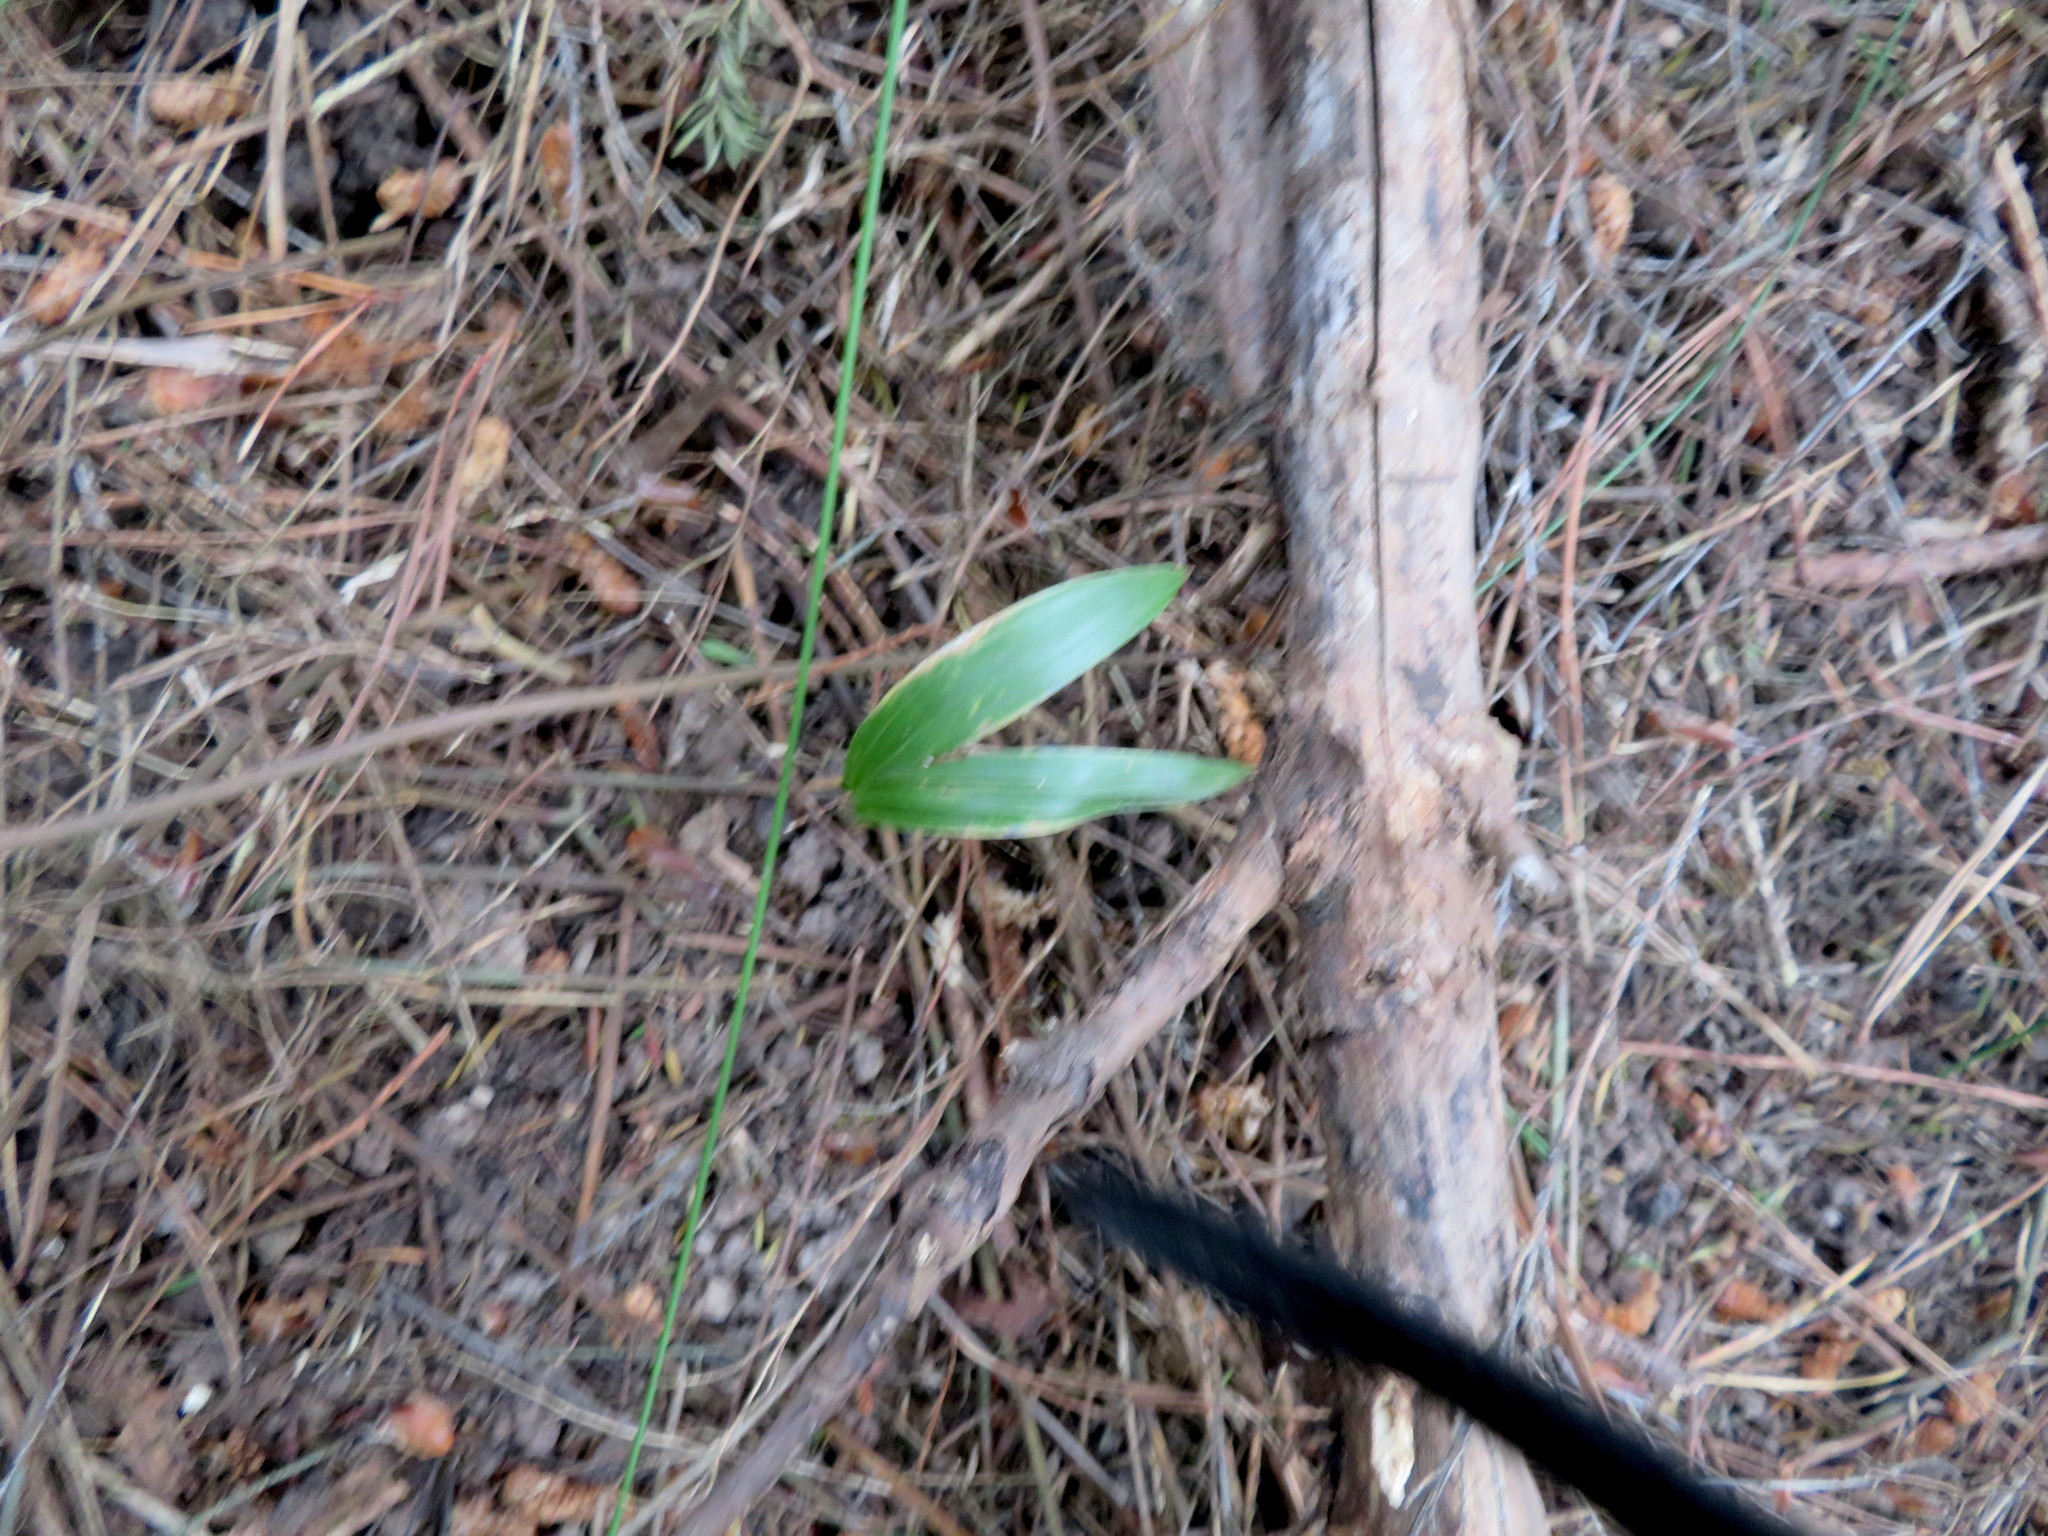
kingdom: Plantae
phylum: Tracheophyta
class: Liliopsida
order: Arecales
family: Arecaceae
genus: Archontophoenix
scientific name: Archontophoenix cunninghamiana
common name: Piccabeen bangalow palm
